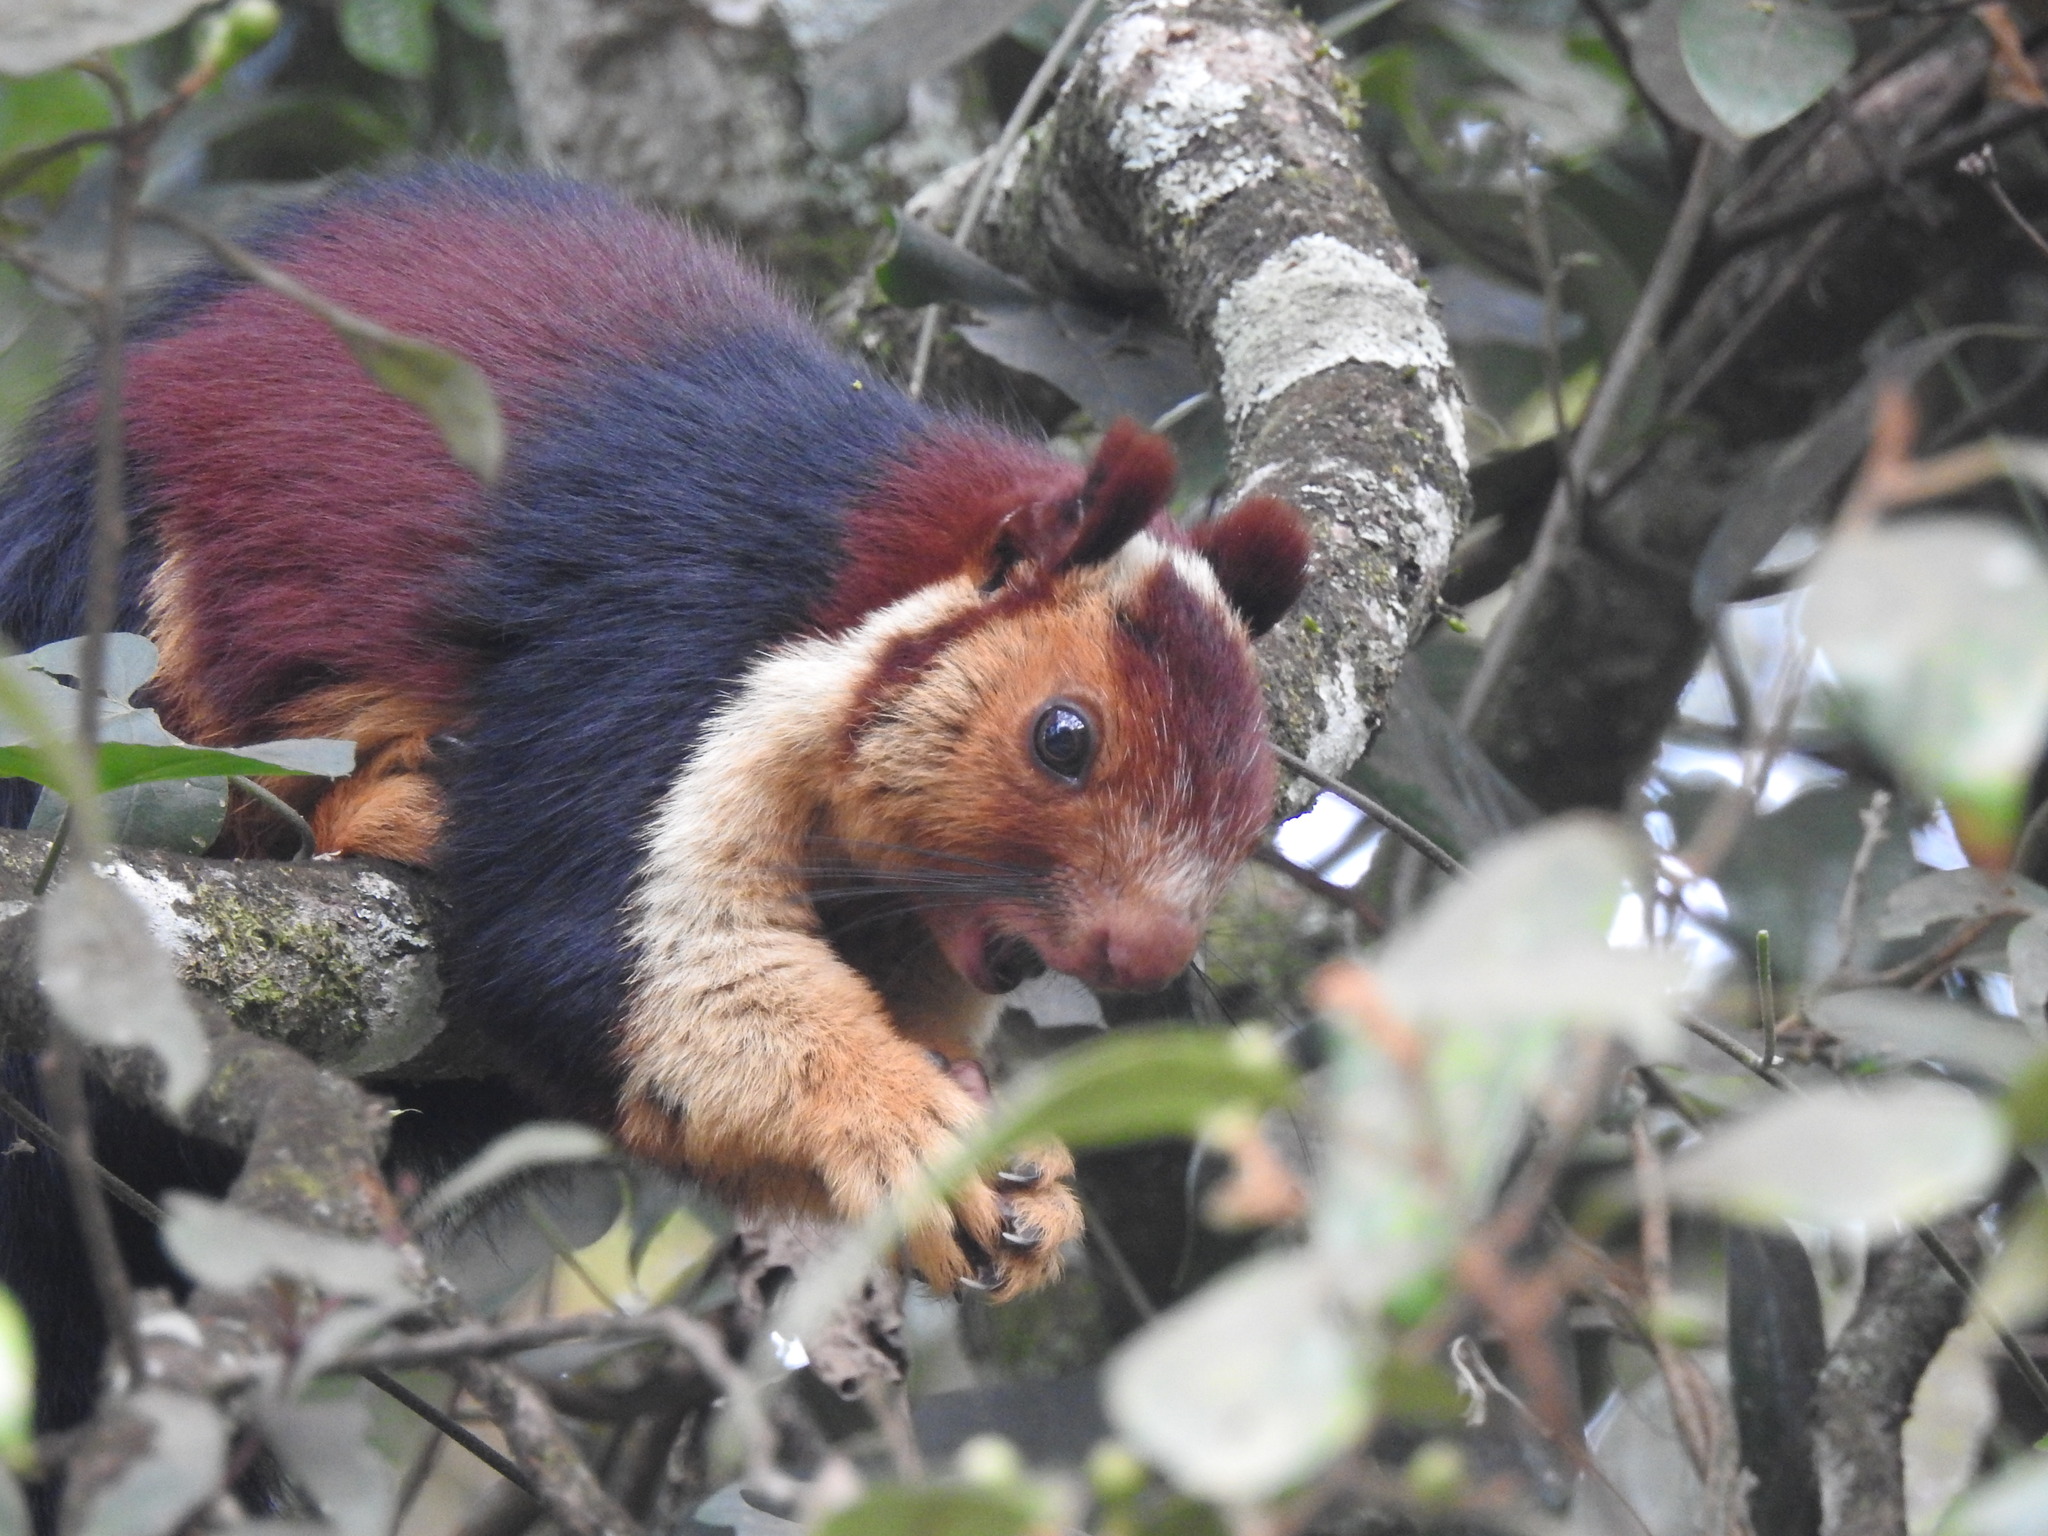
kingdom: Animalia
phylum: Chordata
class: Mammalia
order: Rodentia
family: Sciuridae
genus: Ratufa
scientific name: Ratufa indica
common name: Indian giant squirrel
